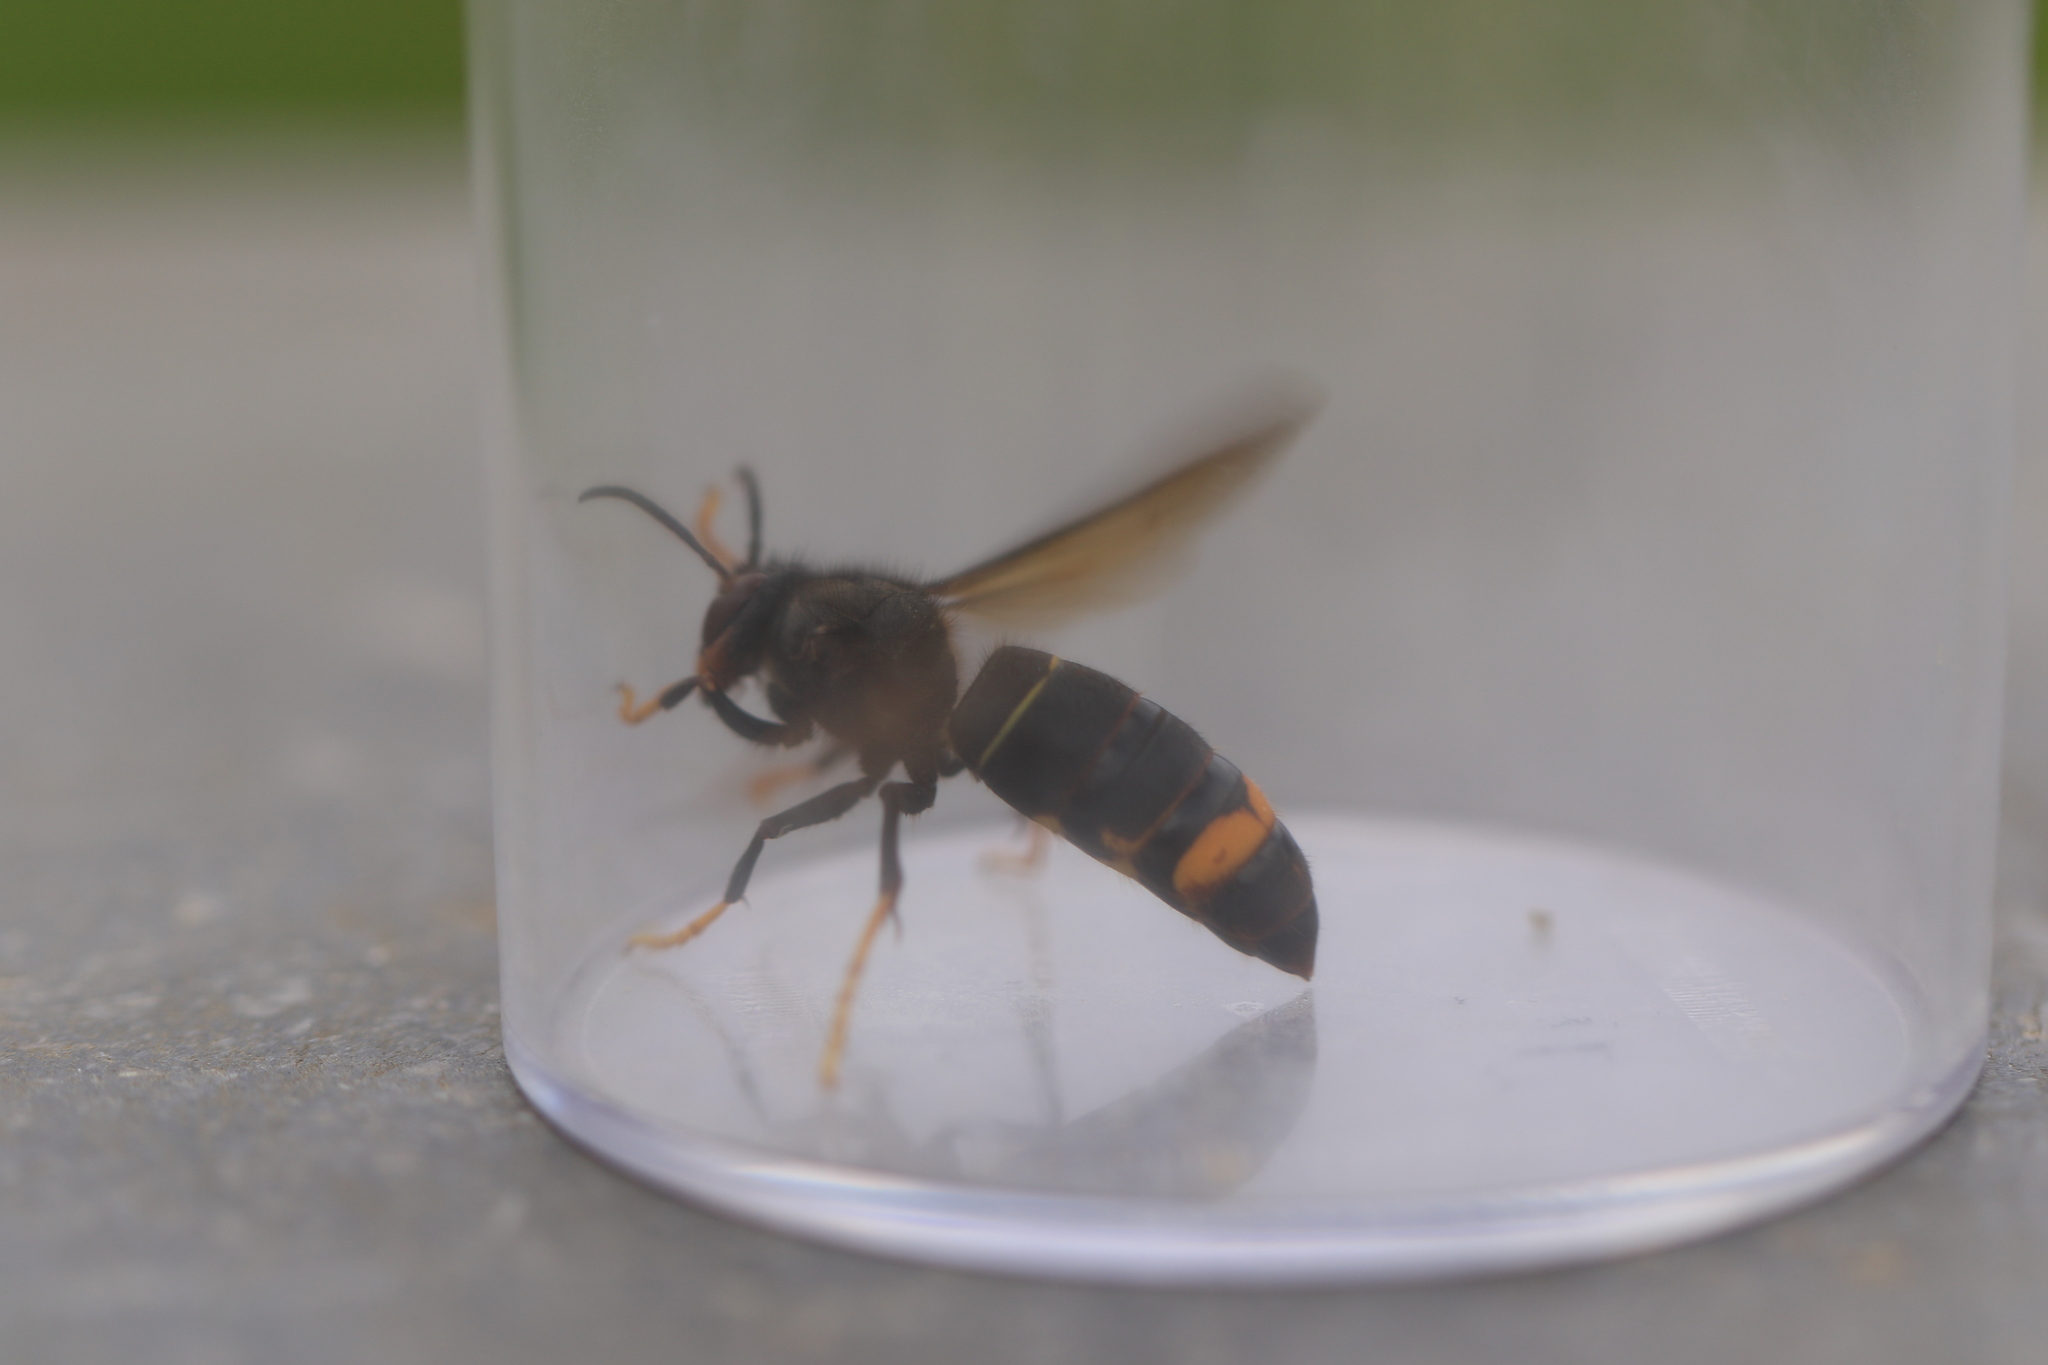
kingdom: Animalia
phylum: Arthropoda
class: Insecta
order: Hymenoptera
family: Vespidae
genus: Vespa
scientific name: Vespa velutina
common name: Asian hornet
